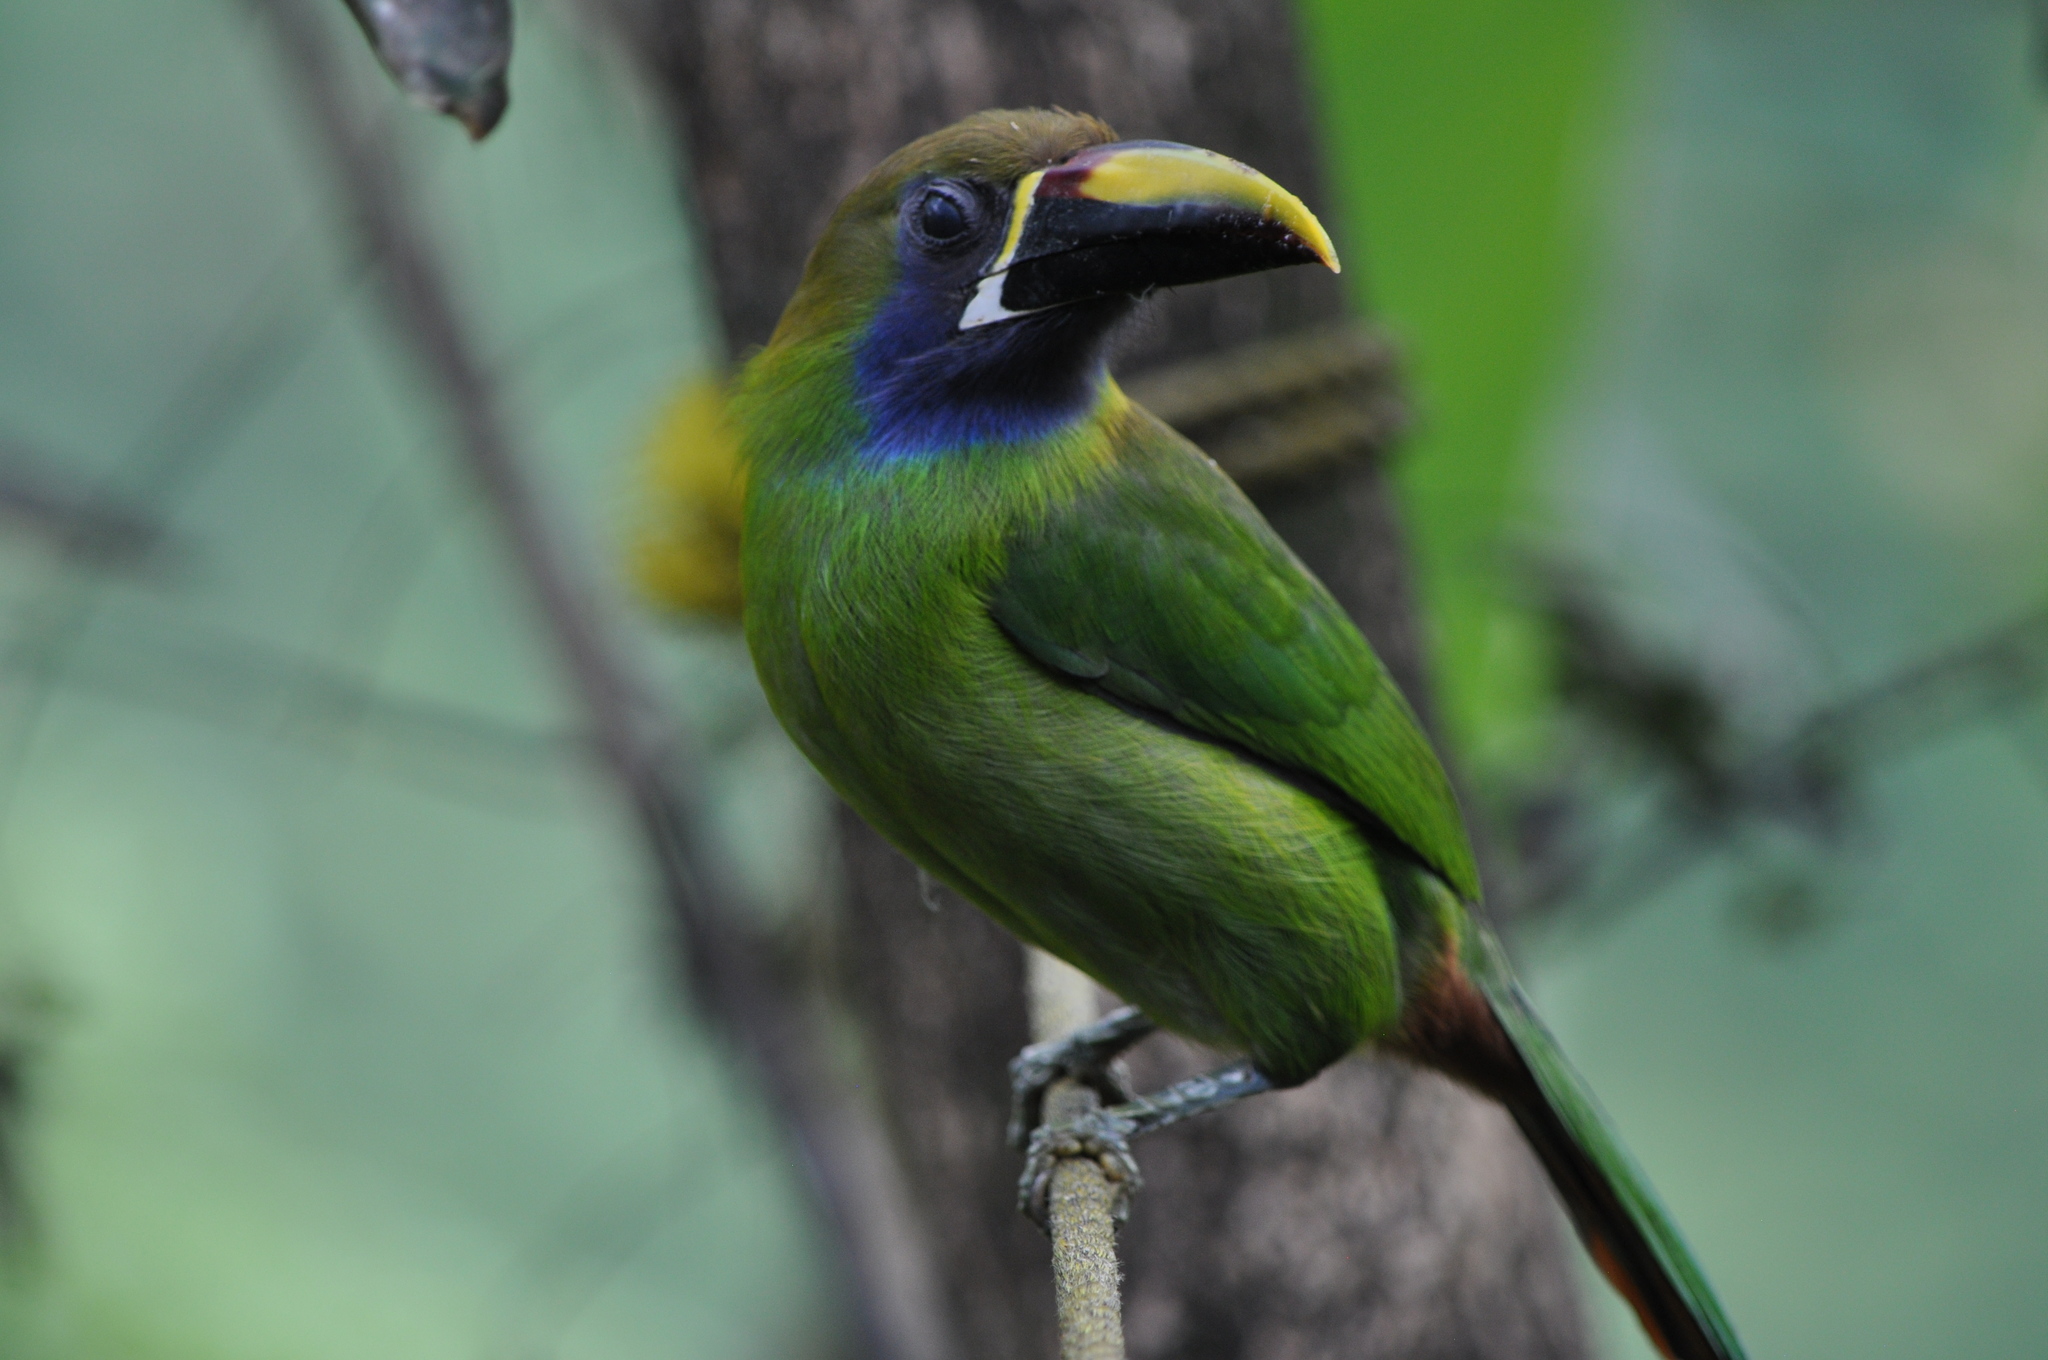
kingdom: Animalia
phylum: Chordata
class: Aves
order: Piciformes
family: Ramphastidae
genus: Aulacorhynchus
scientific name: Aulacorhynchus prasinus
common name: Emerald toucanet
